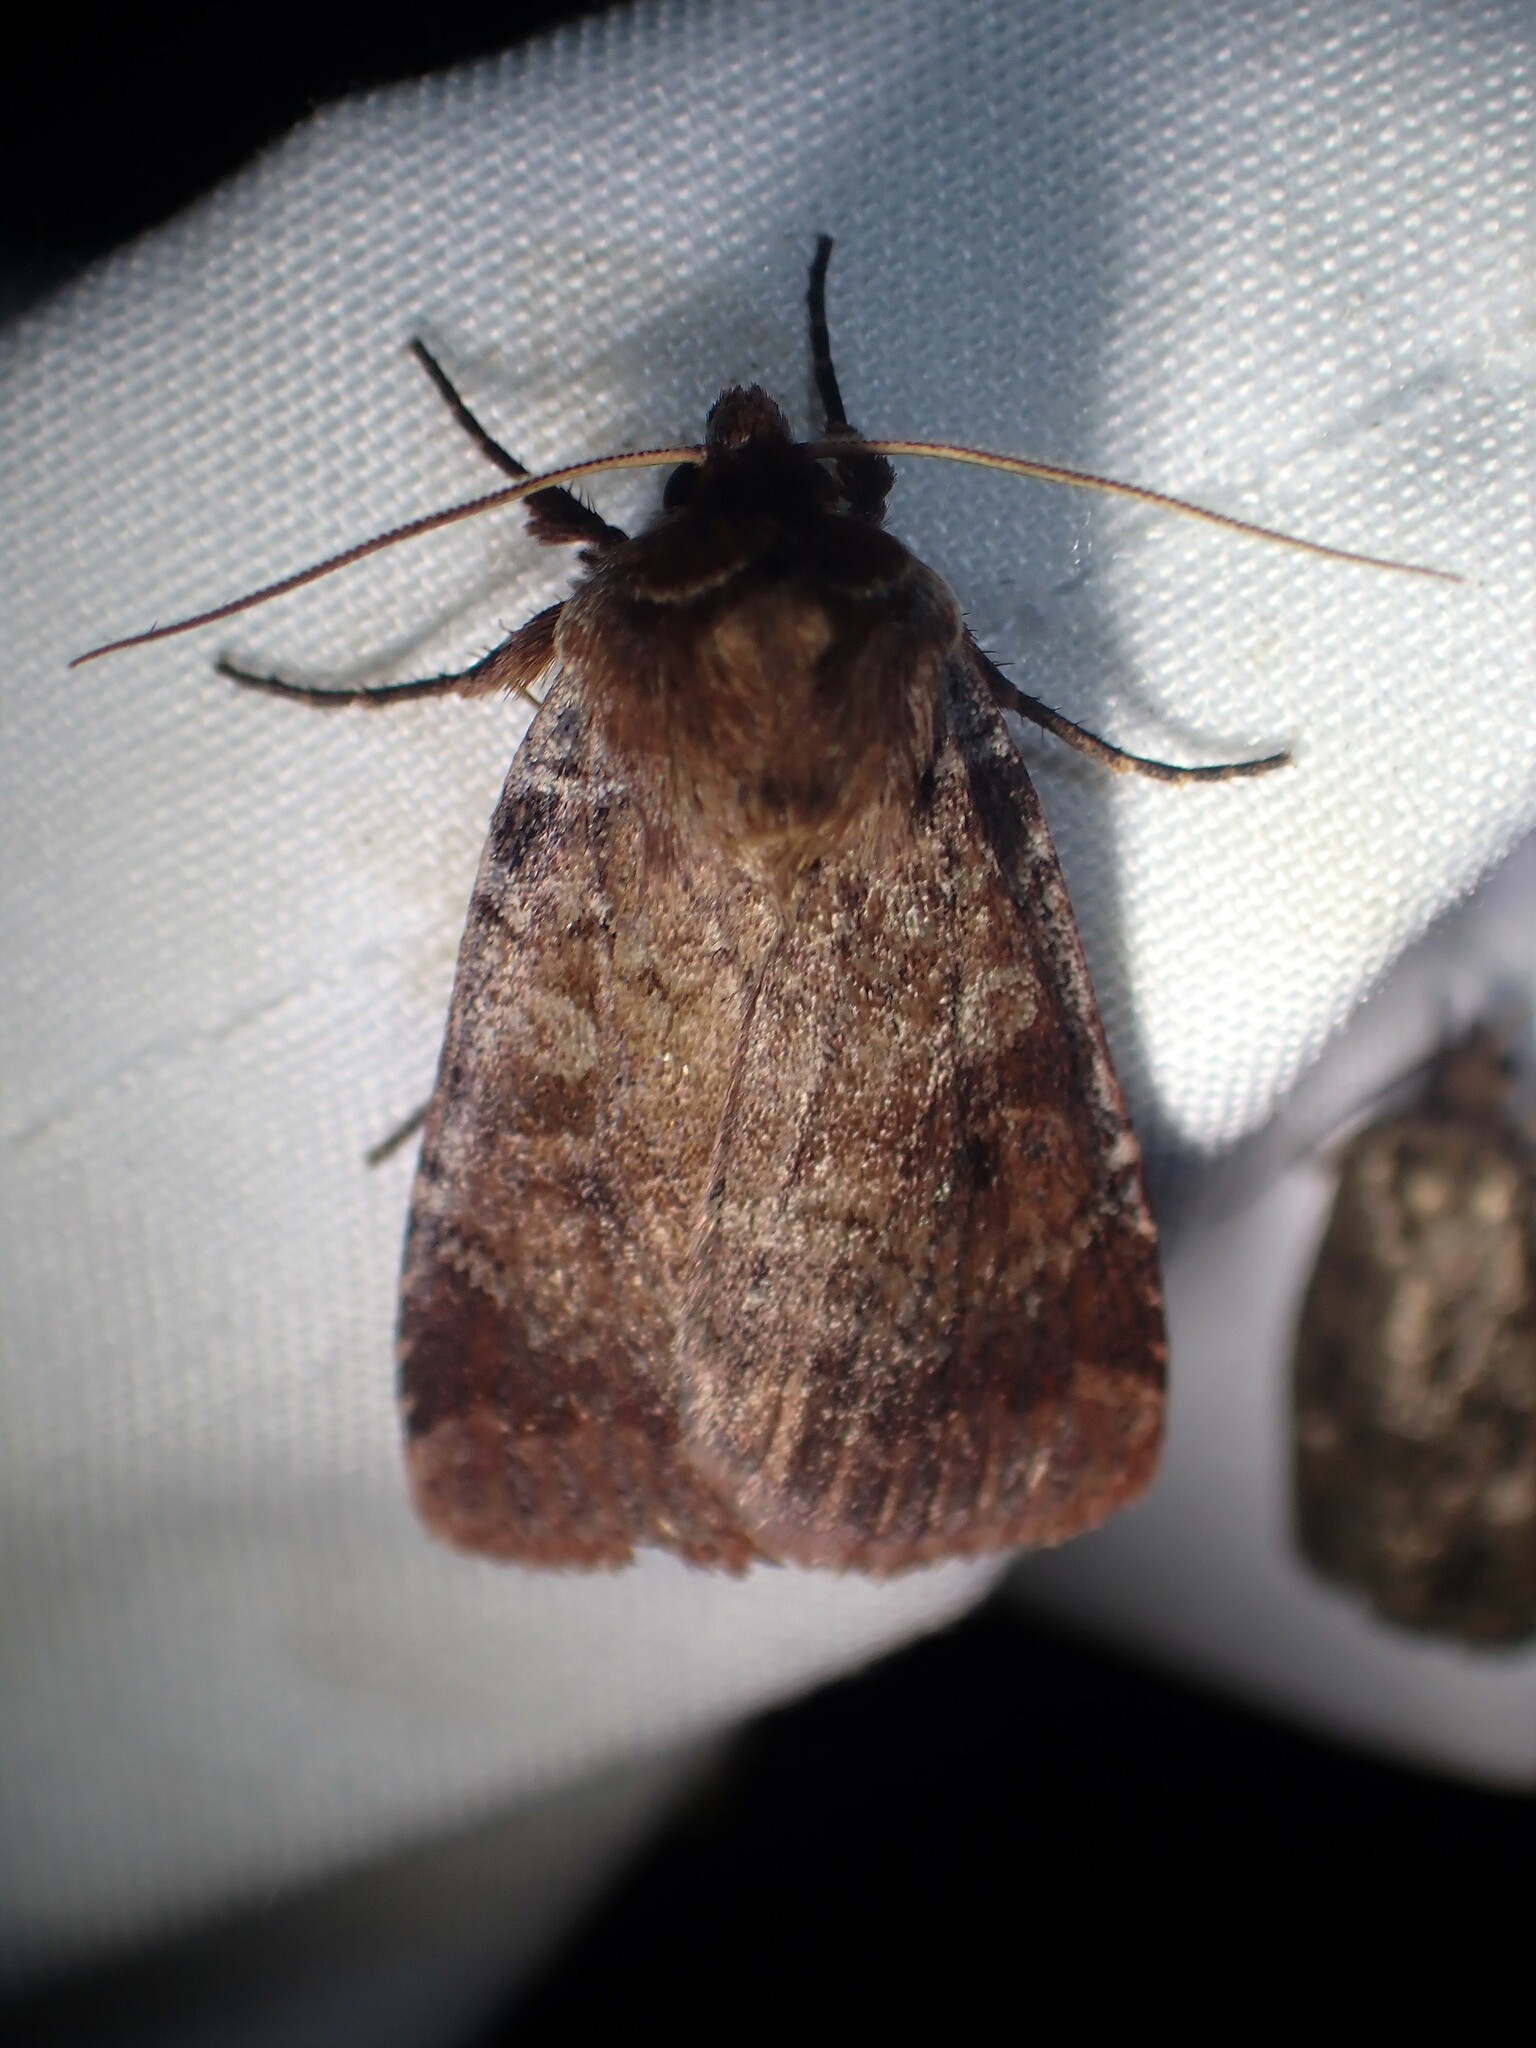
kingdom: Animalia
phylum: Arthropoda
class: Insecta
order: Lepidoptera
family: Noctuidae
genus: Lycophotia
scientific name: Lycophotia phyllophora
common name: Lycophotia moth
